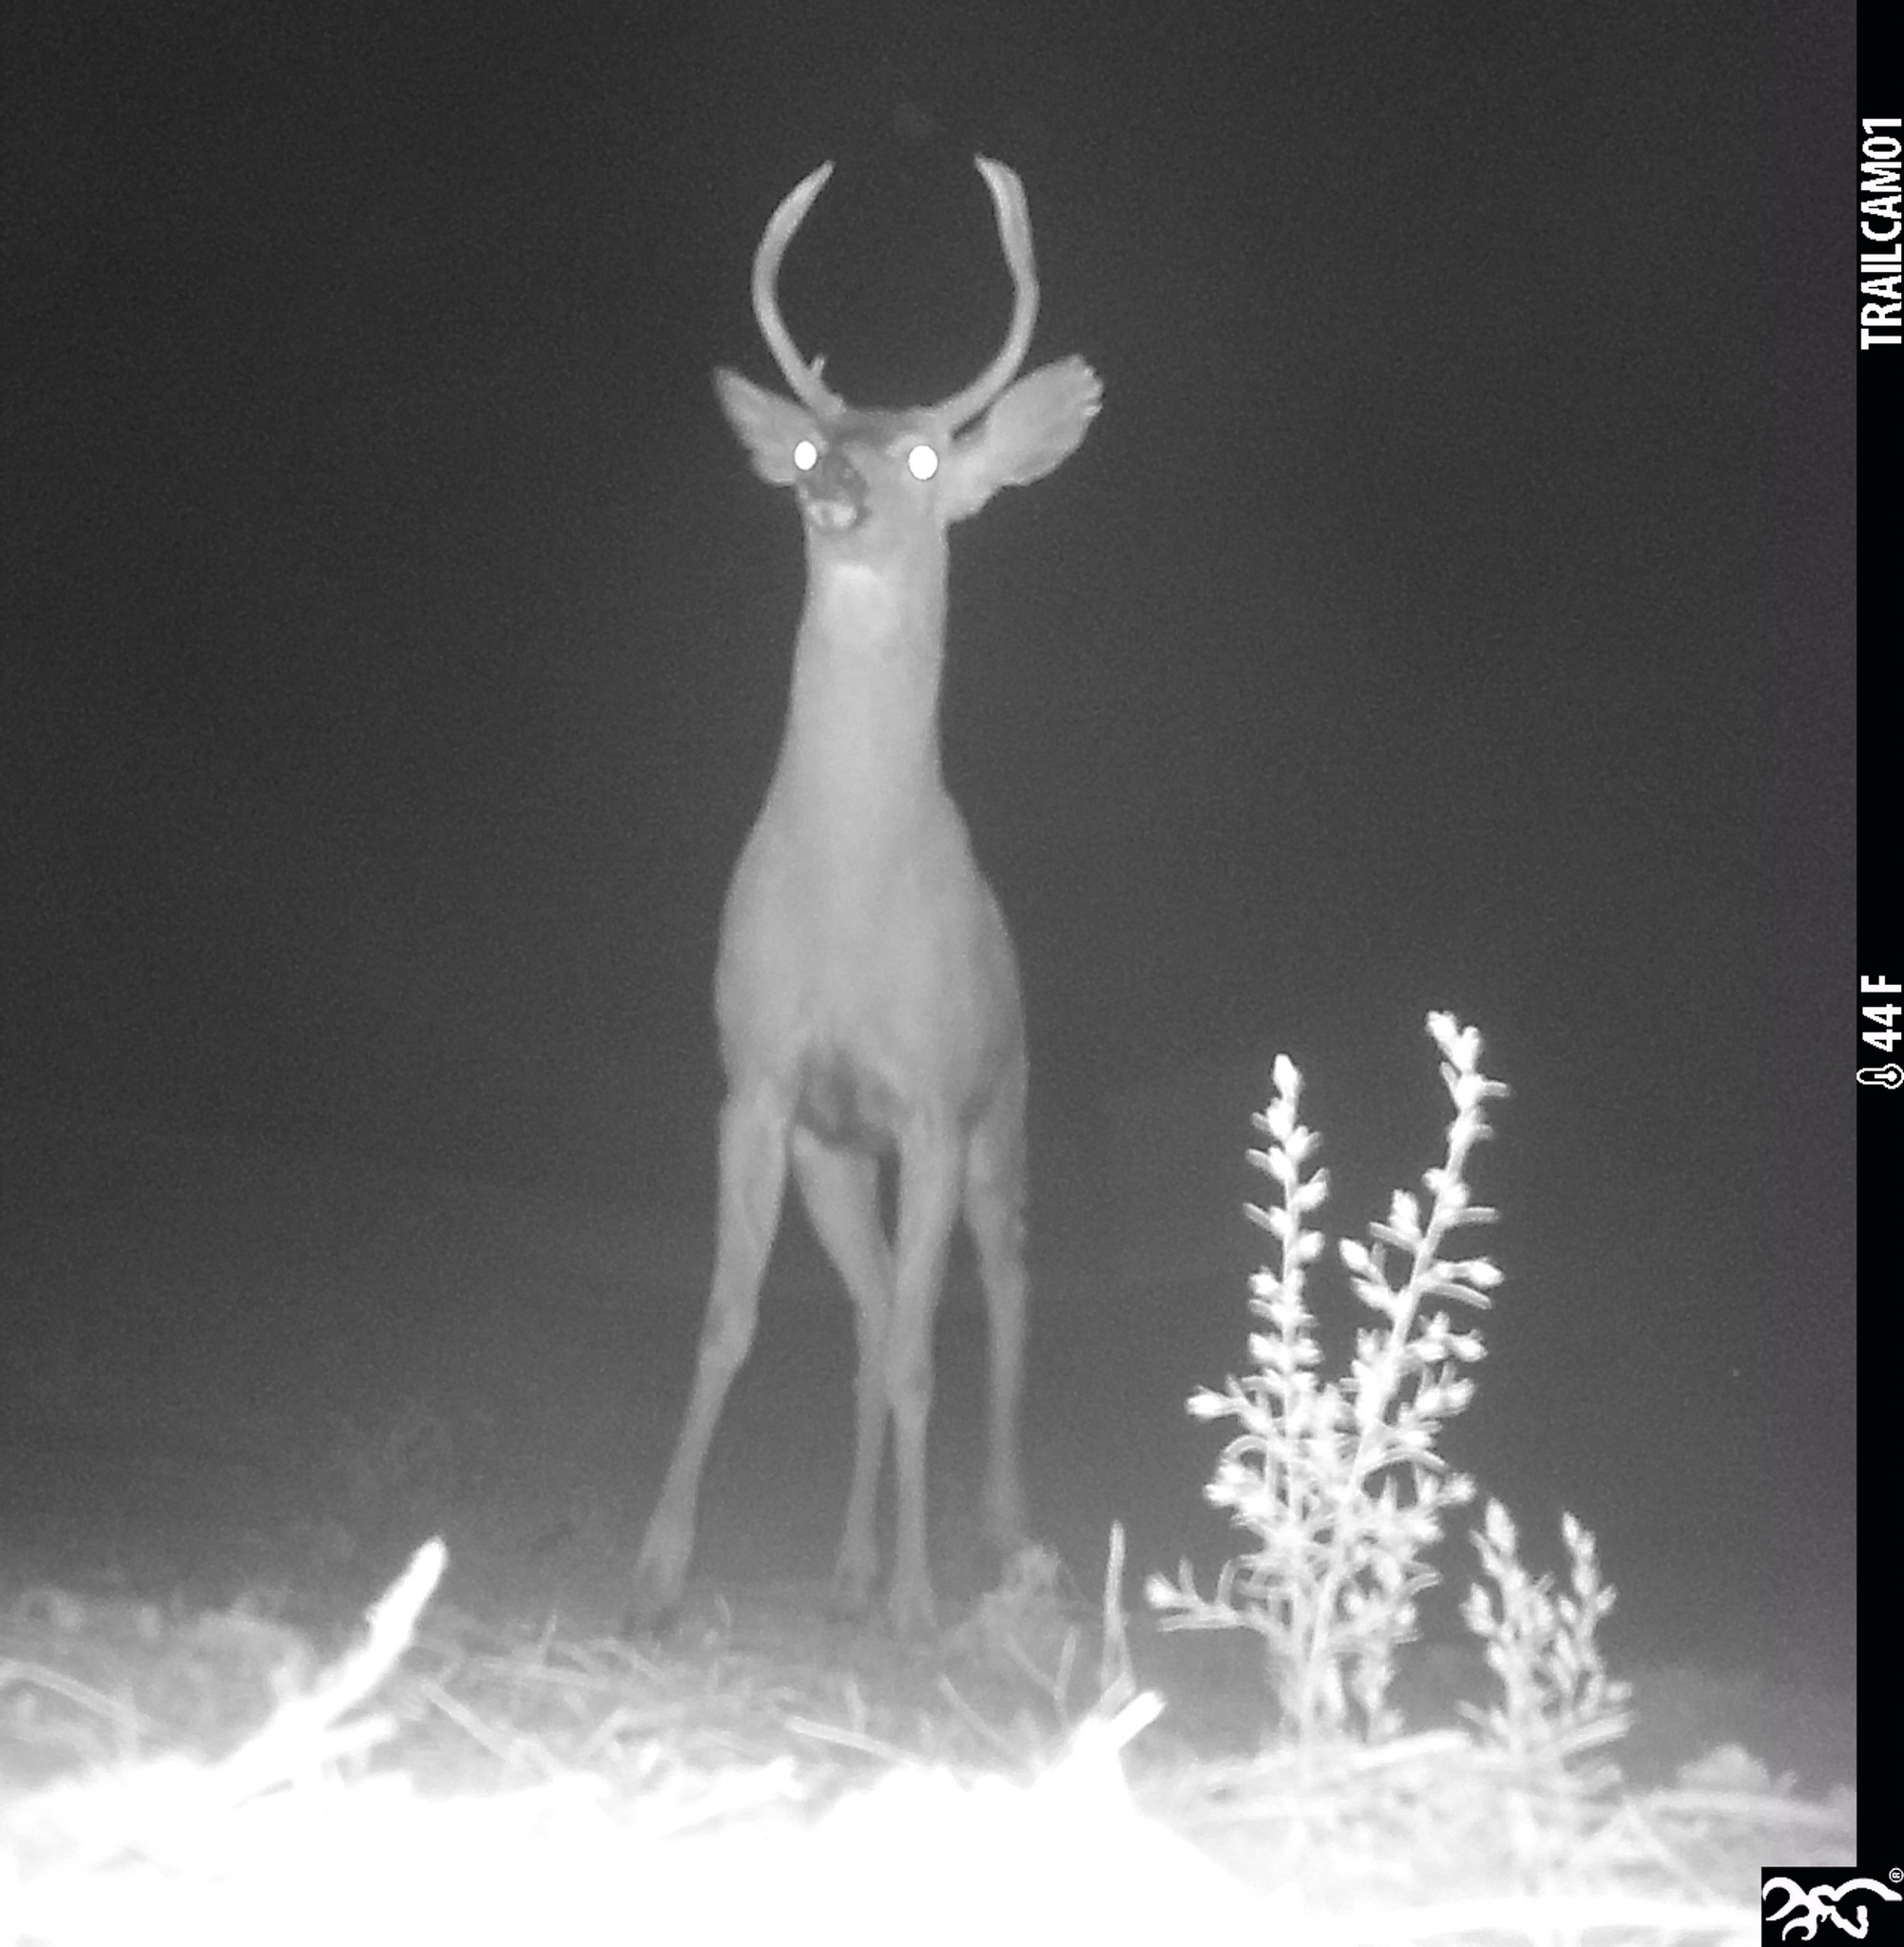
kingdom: Animalia
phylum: Chordata
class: Mammalia
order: Artiodactyla
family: Cervidae
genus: Odocoileus
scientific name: Odocoileus hemionus
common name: Mule deer
